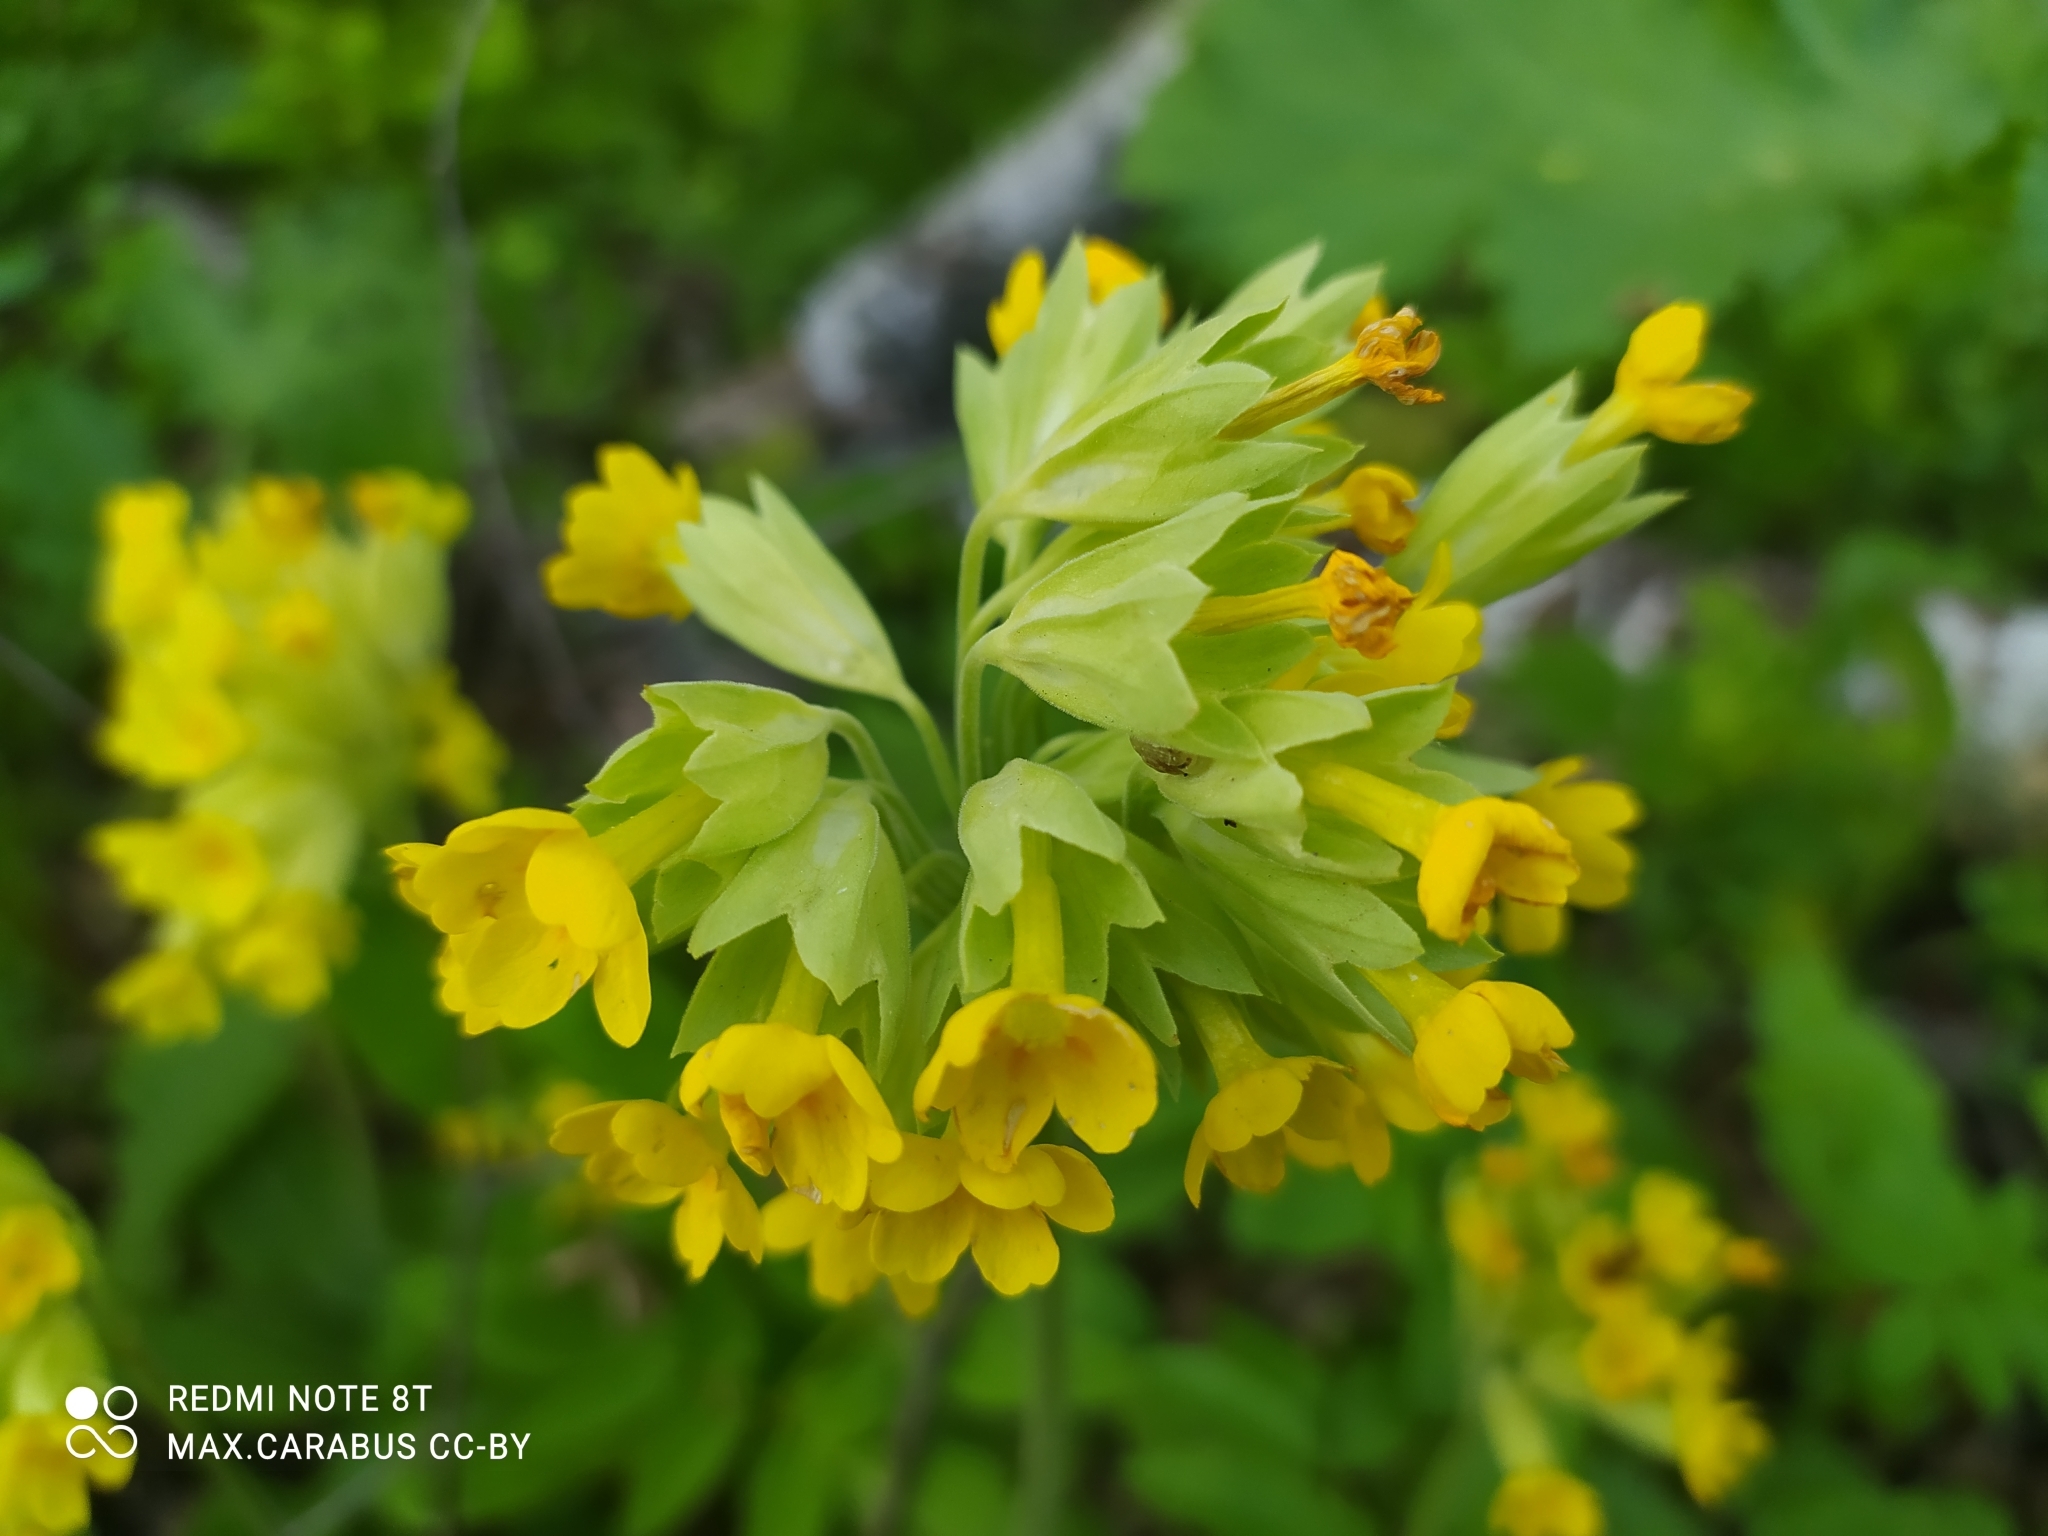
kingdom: Plantae
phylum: Tracheophyta
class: Magnoliopsida
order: Ericales
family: Primulaceae
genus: Primula
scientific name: Primula veris
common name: Cowslip
